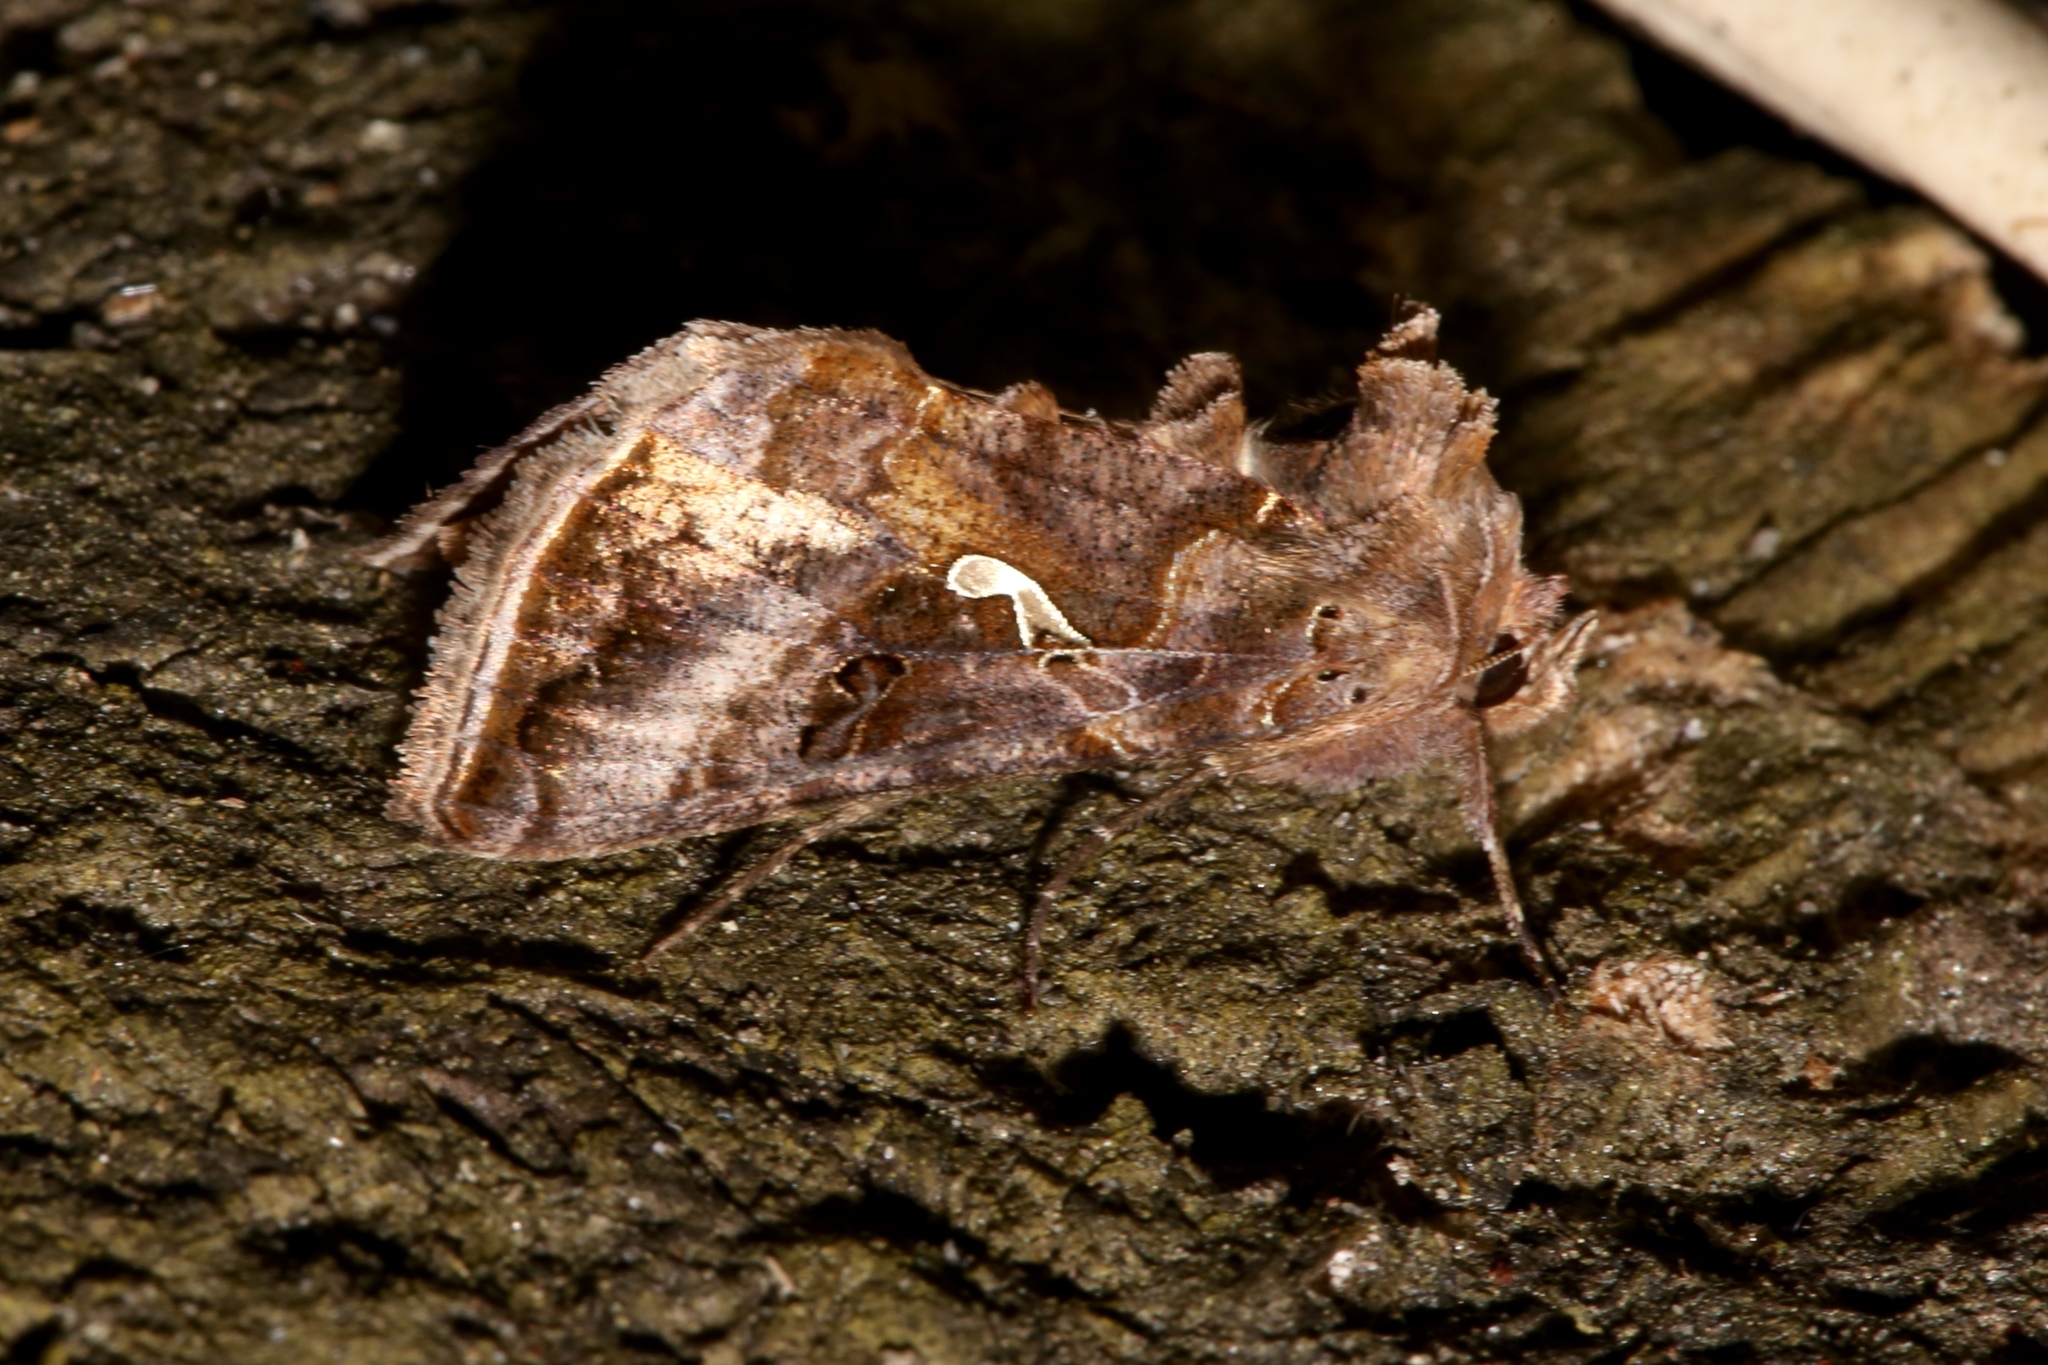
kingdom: Animalia
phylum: Arthropoda
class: Insecta
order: Lepidoptera
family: Noctuidae
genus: Autographa
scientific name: Autographa precationis
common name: Common looper moth
